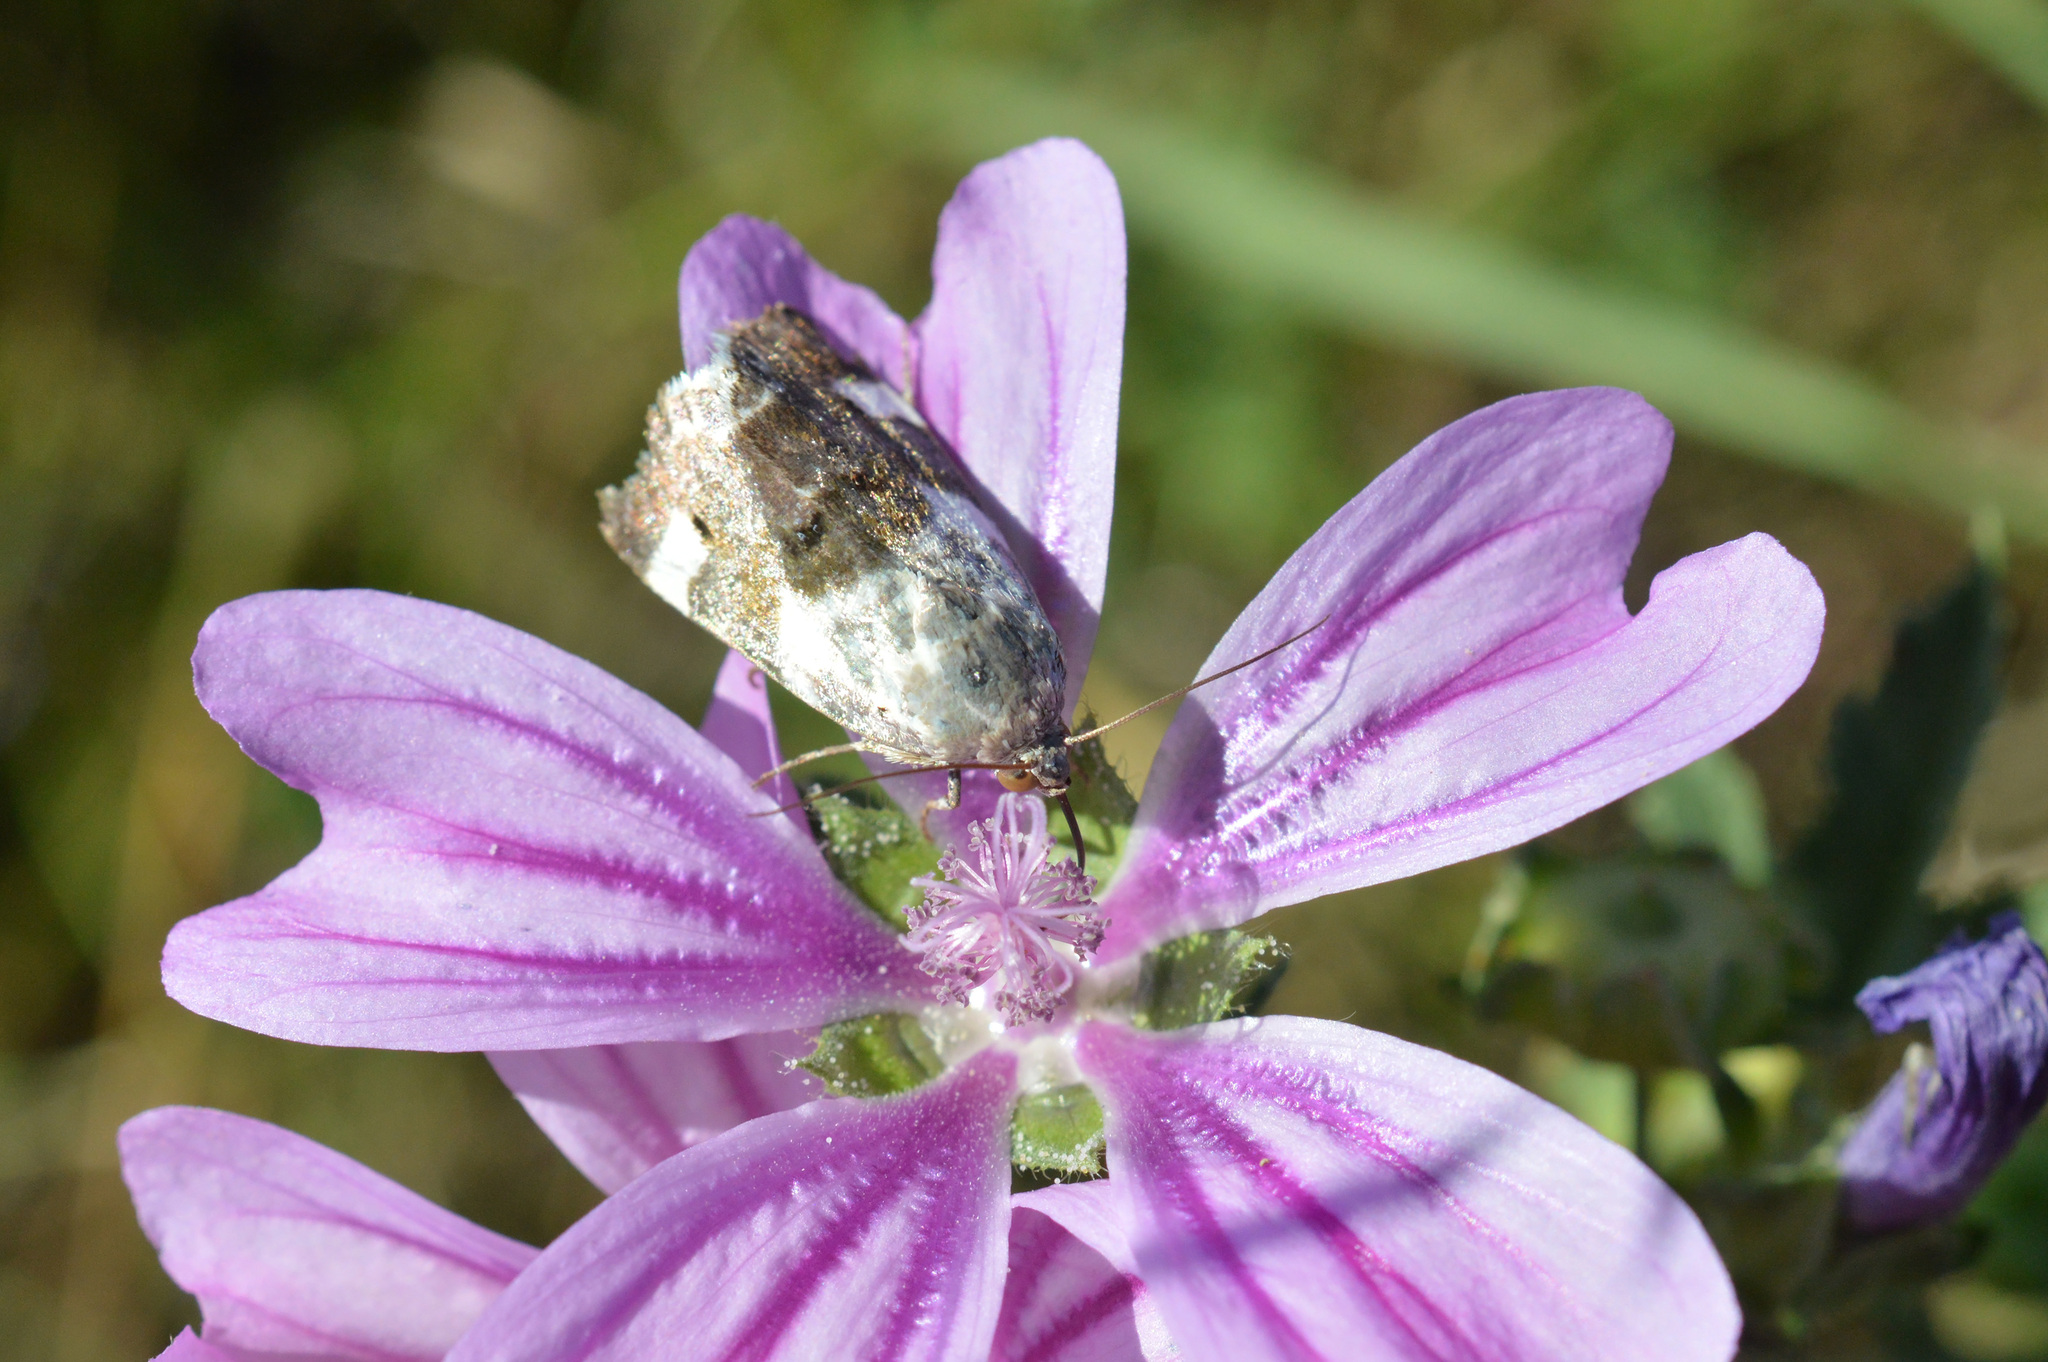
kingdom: Animalia
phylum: Arthropoda
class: Insecta
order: Lepidoptera
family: Noctuidae
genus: Acontia
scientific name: Acontia lucida
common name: Pale shoulder
